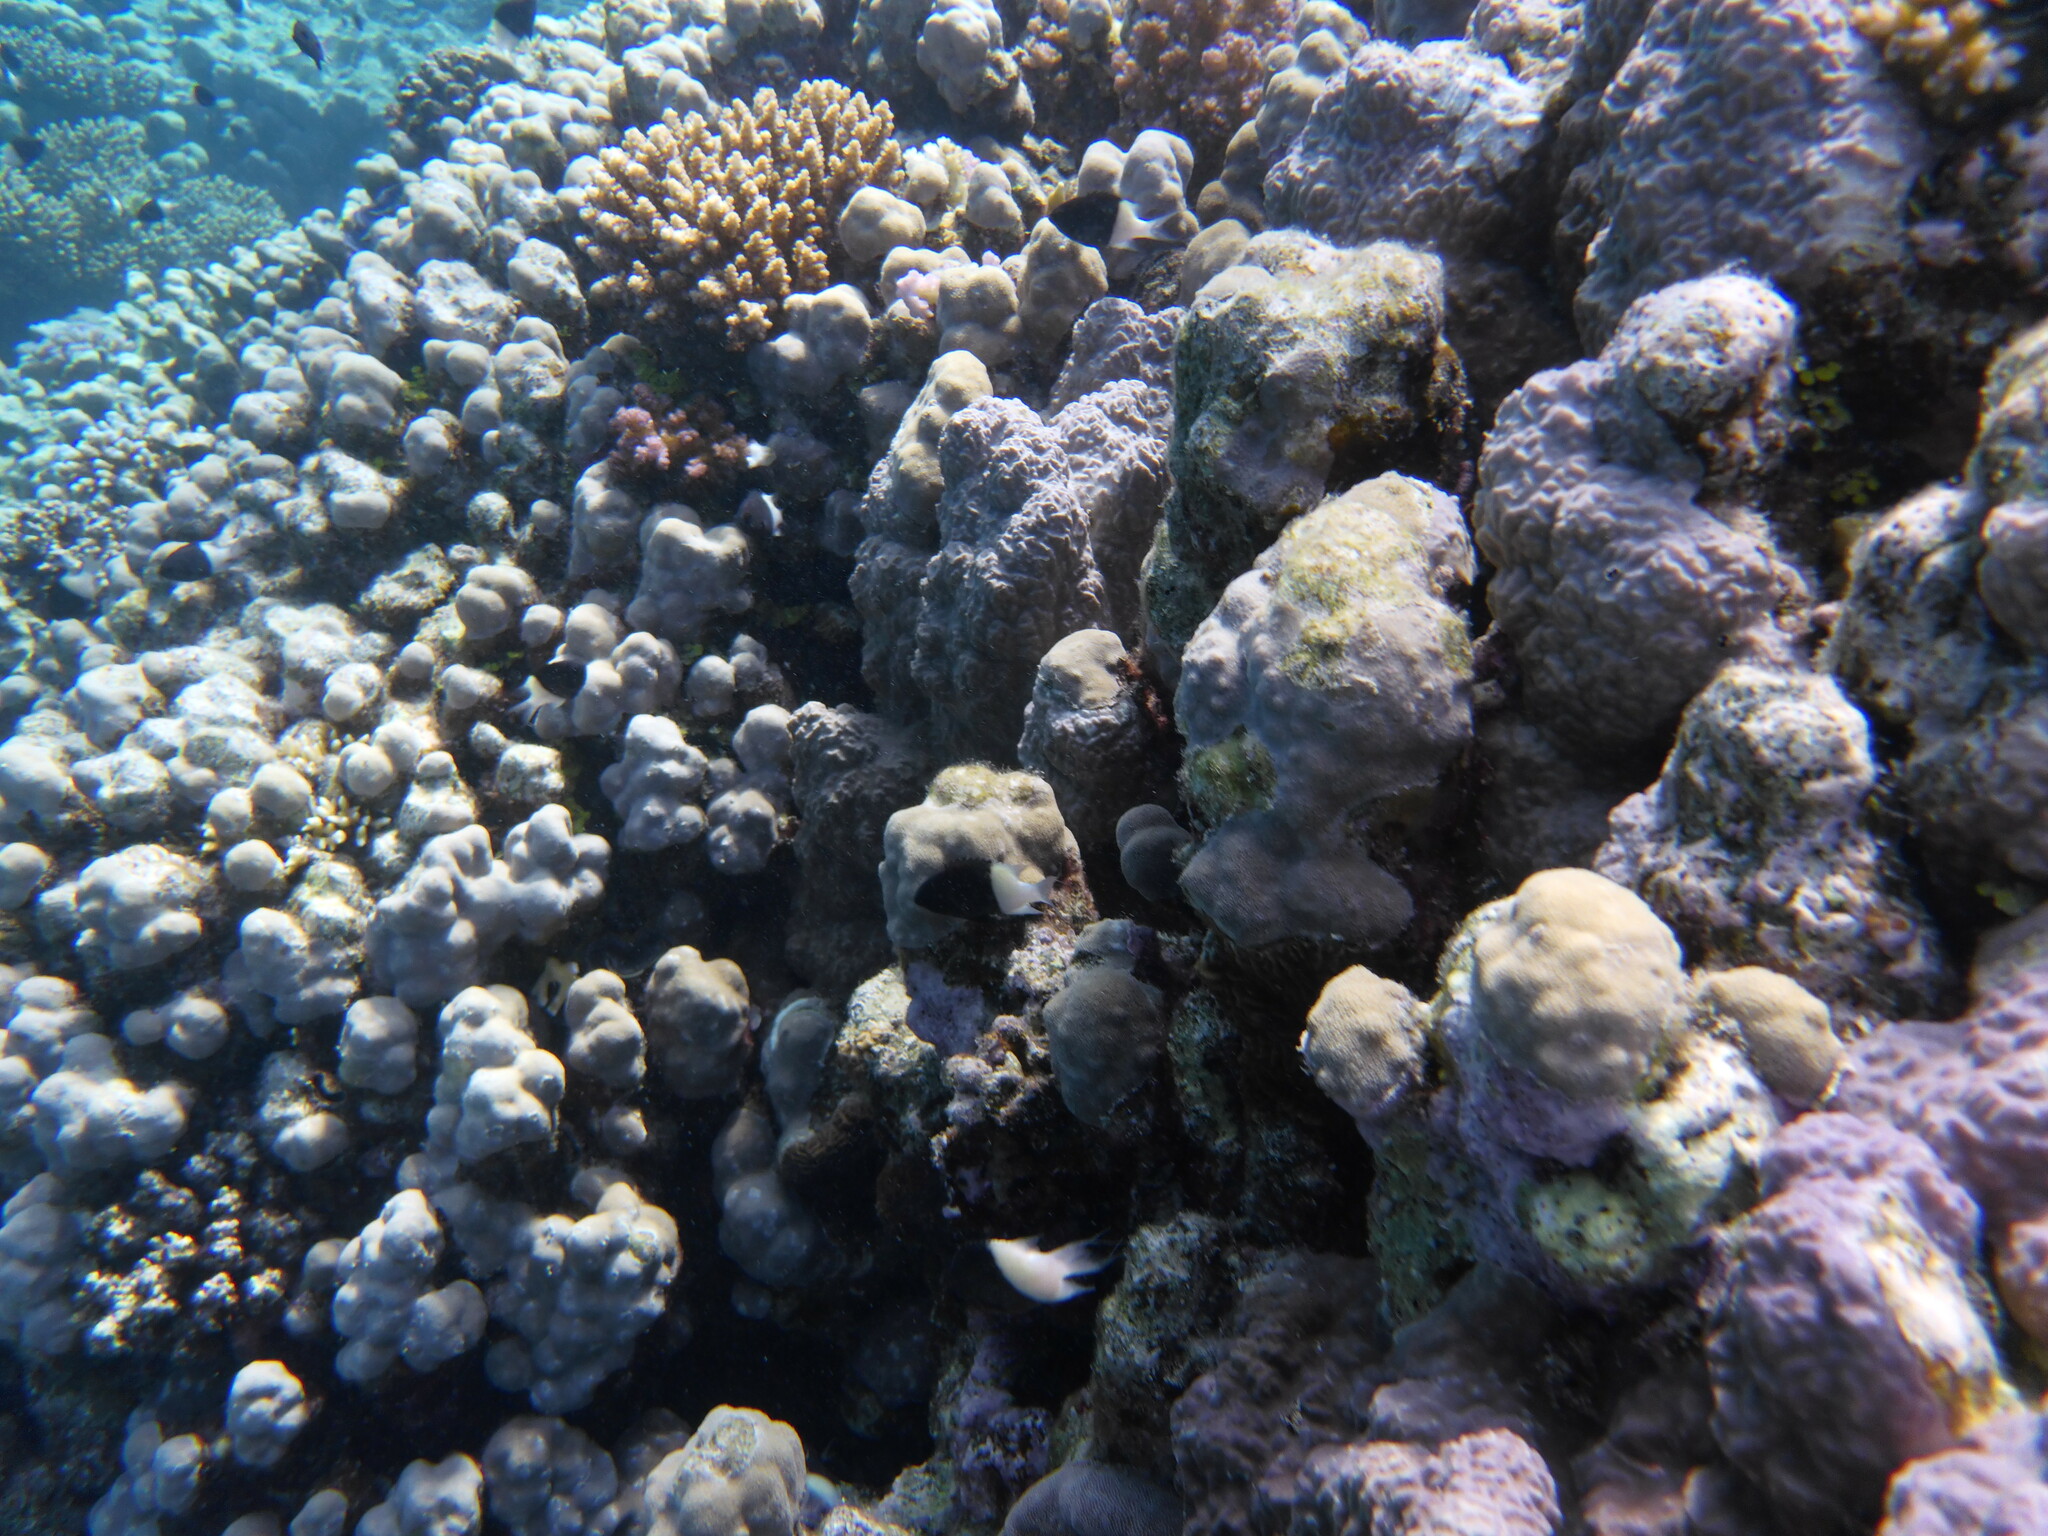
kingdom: Animalia
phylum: Chordata
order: Perciformes
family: Pomacentridae
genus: Chromis
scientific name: Chromis dimidiata
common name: Half-and-half chromis
